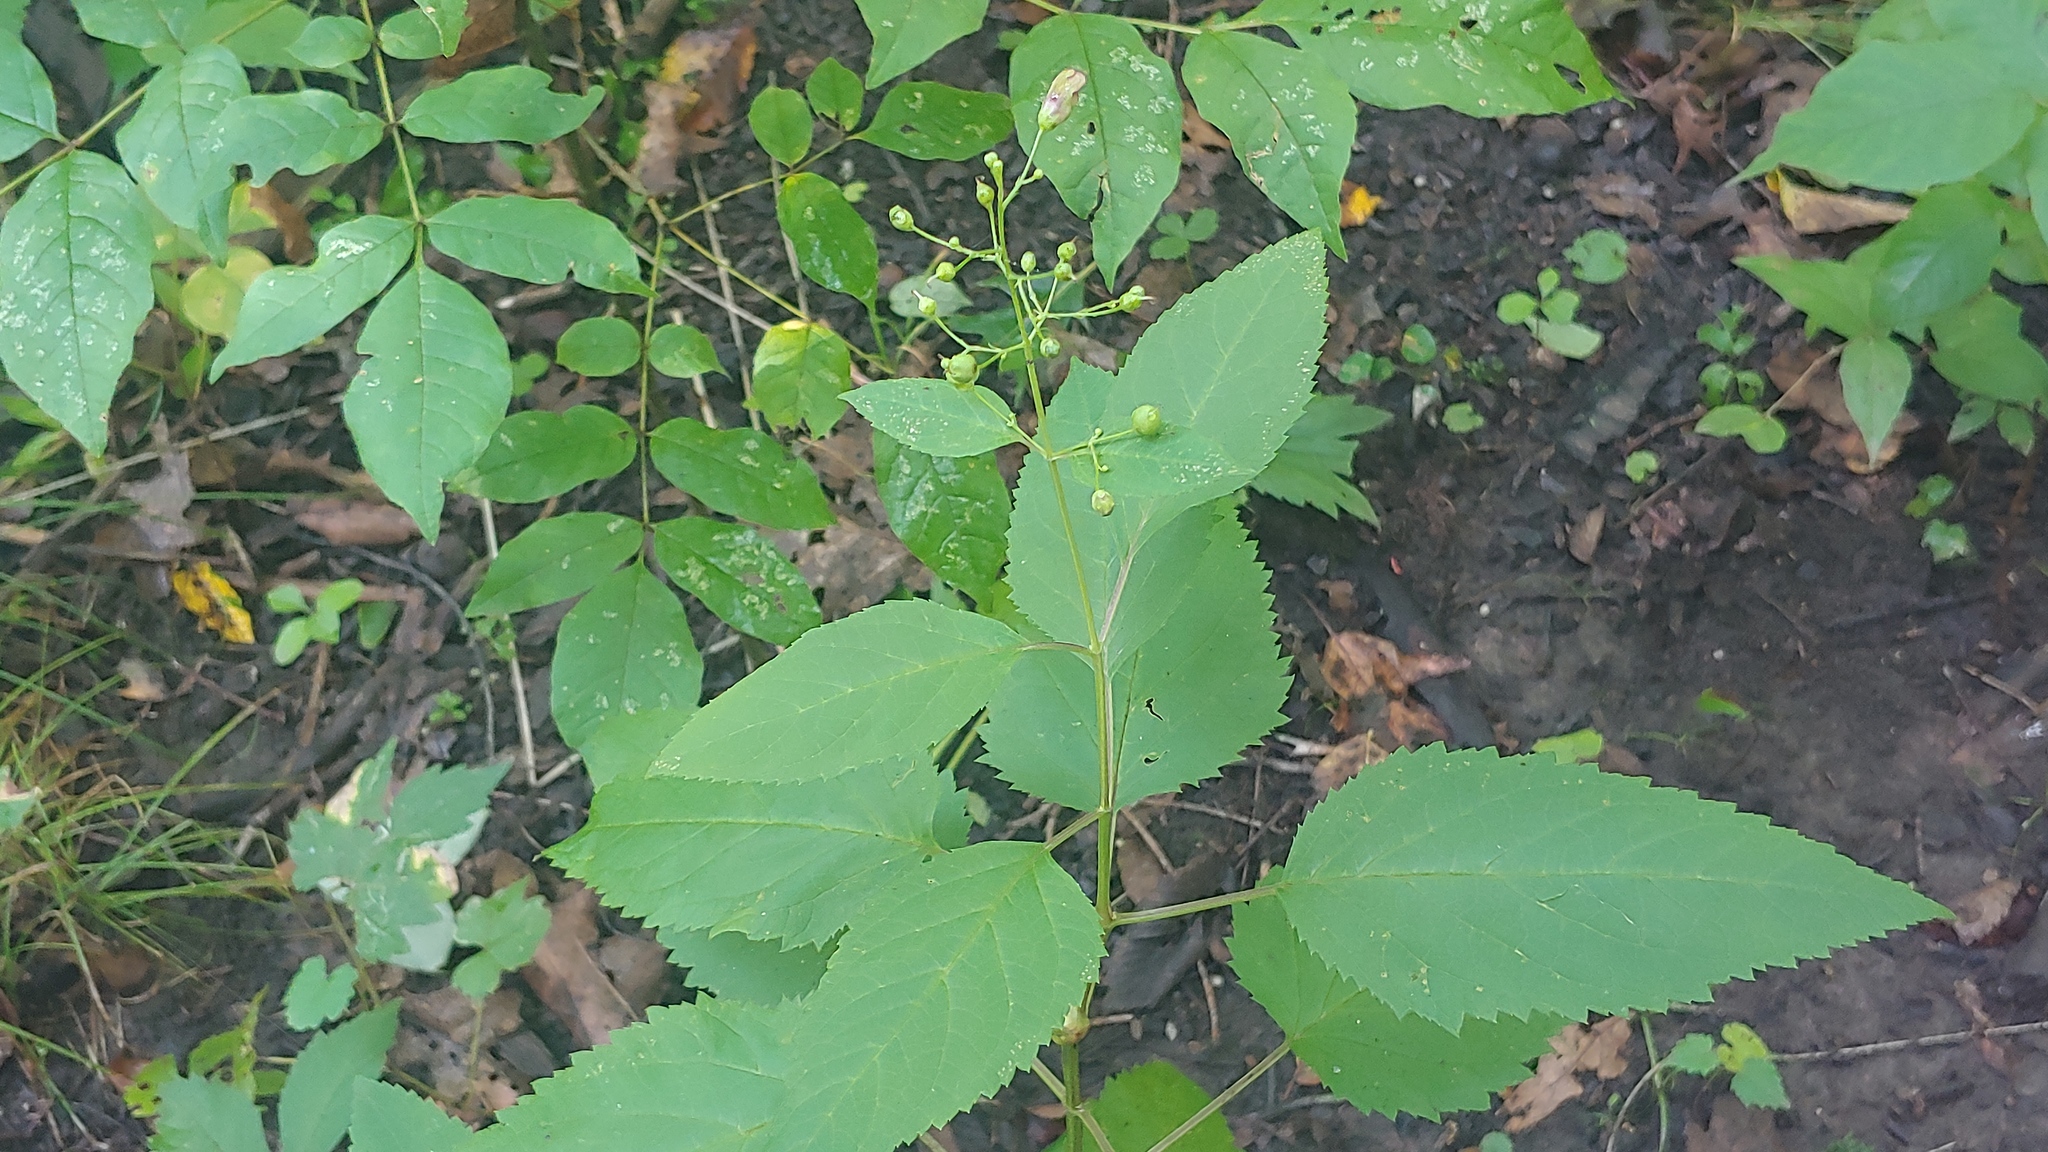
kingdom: Plantae
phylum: Tracheophyta
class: Magnoliopsida
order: Lamiales
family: Scrophulariaceae
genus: Scrophularia
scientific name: Scrophularia marilandica
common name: Eastern figwort
